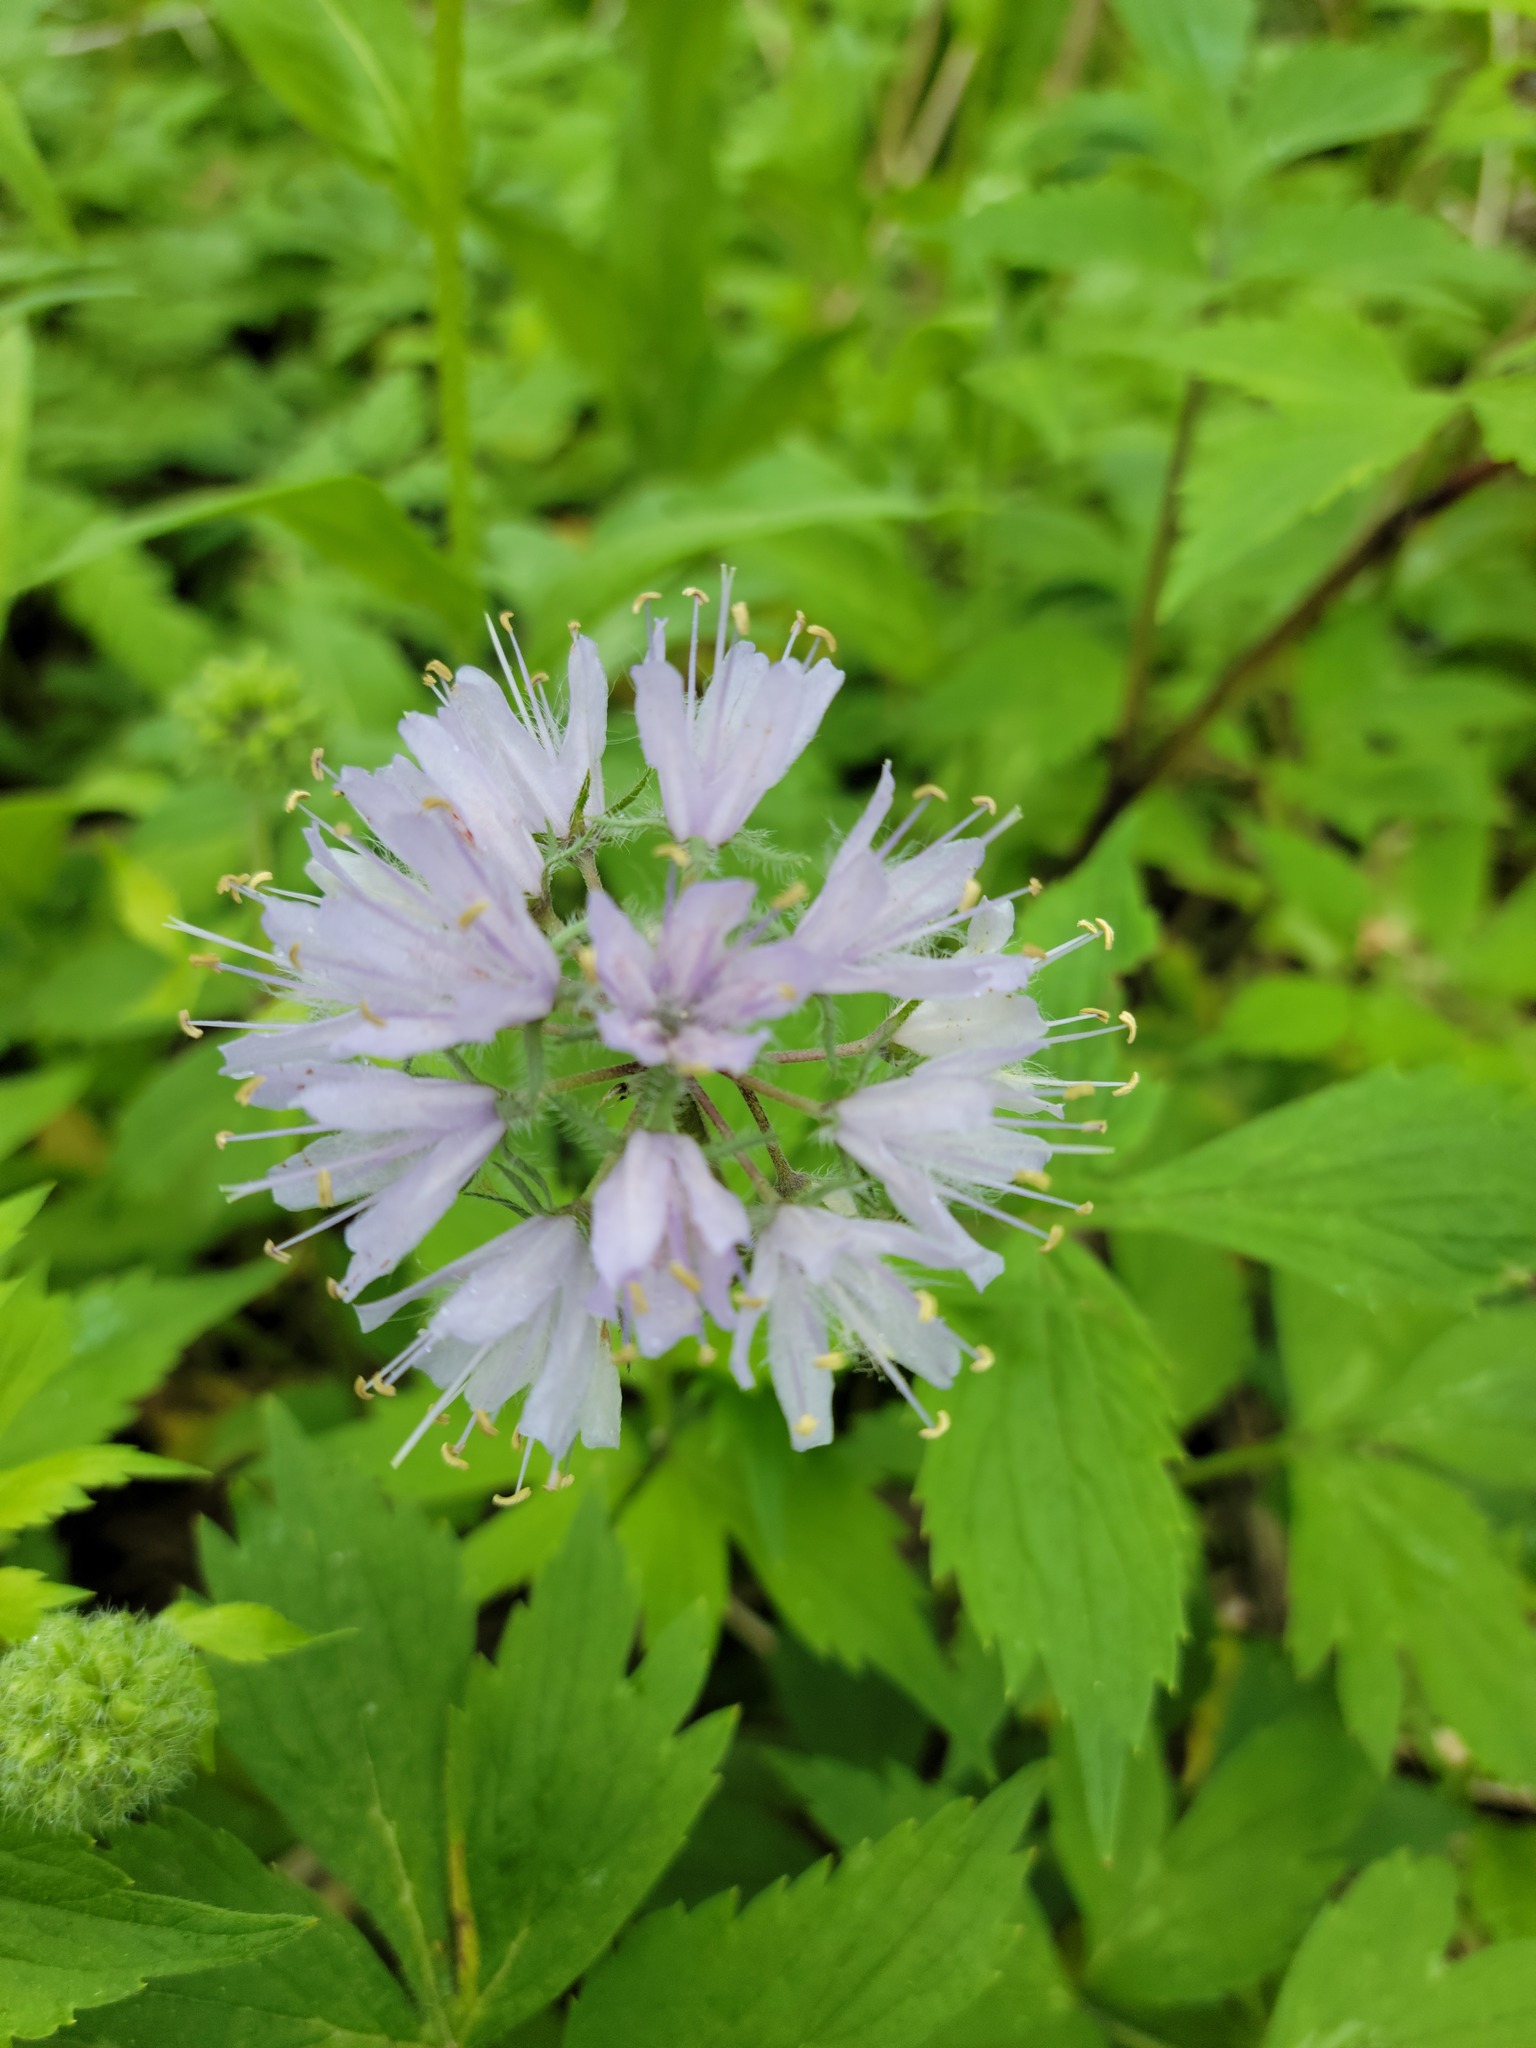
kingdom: Plantae
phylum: Tracheophyta
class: Magnoliopsida
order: Boraginales
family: Hydrophyllaceae
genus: Hydrophyllum
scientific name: Hydrophyllum virginianum
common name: Virginia waterleaf
